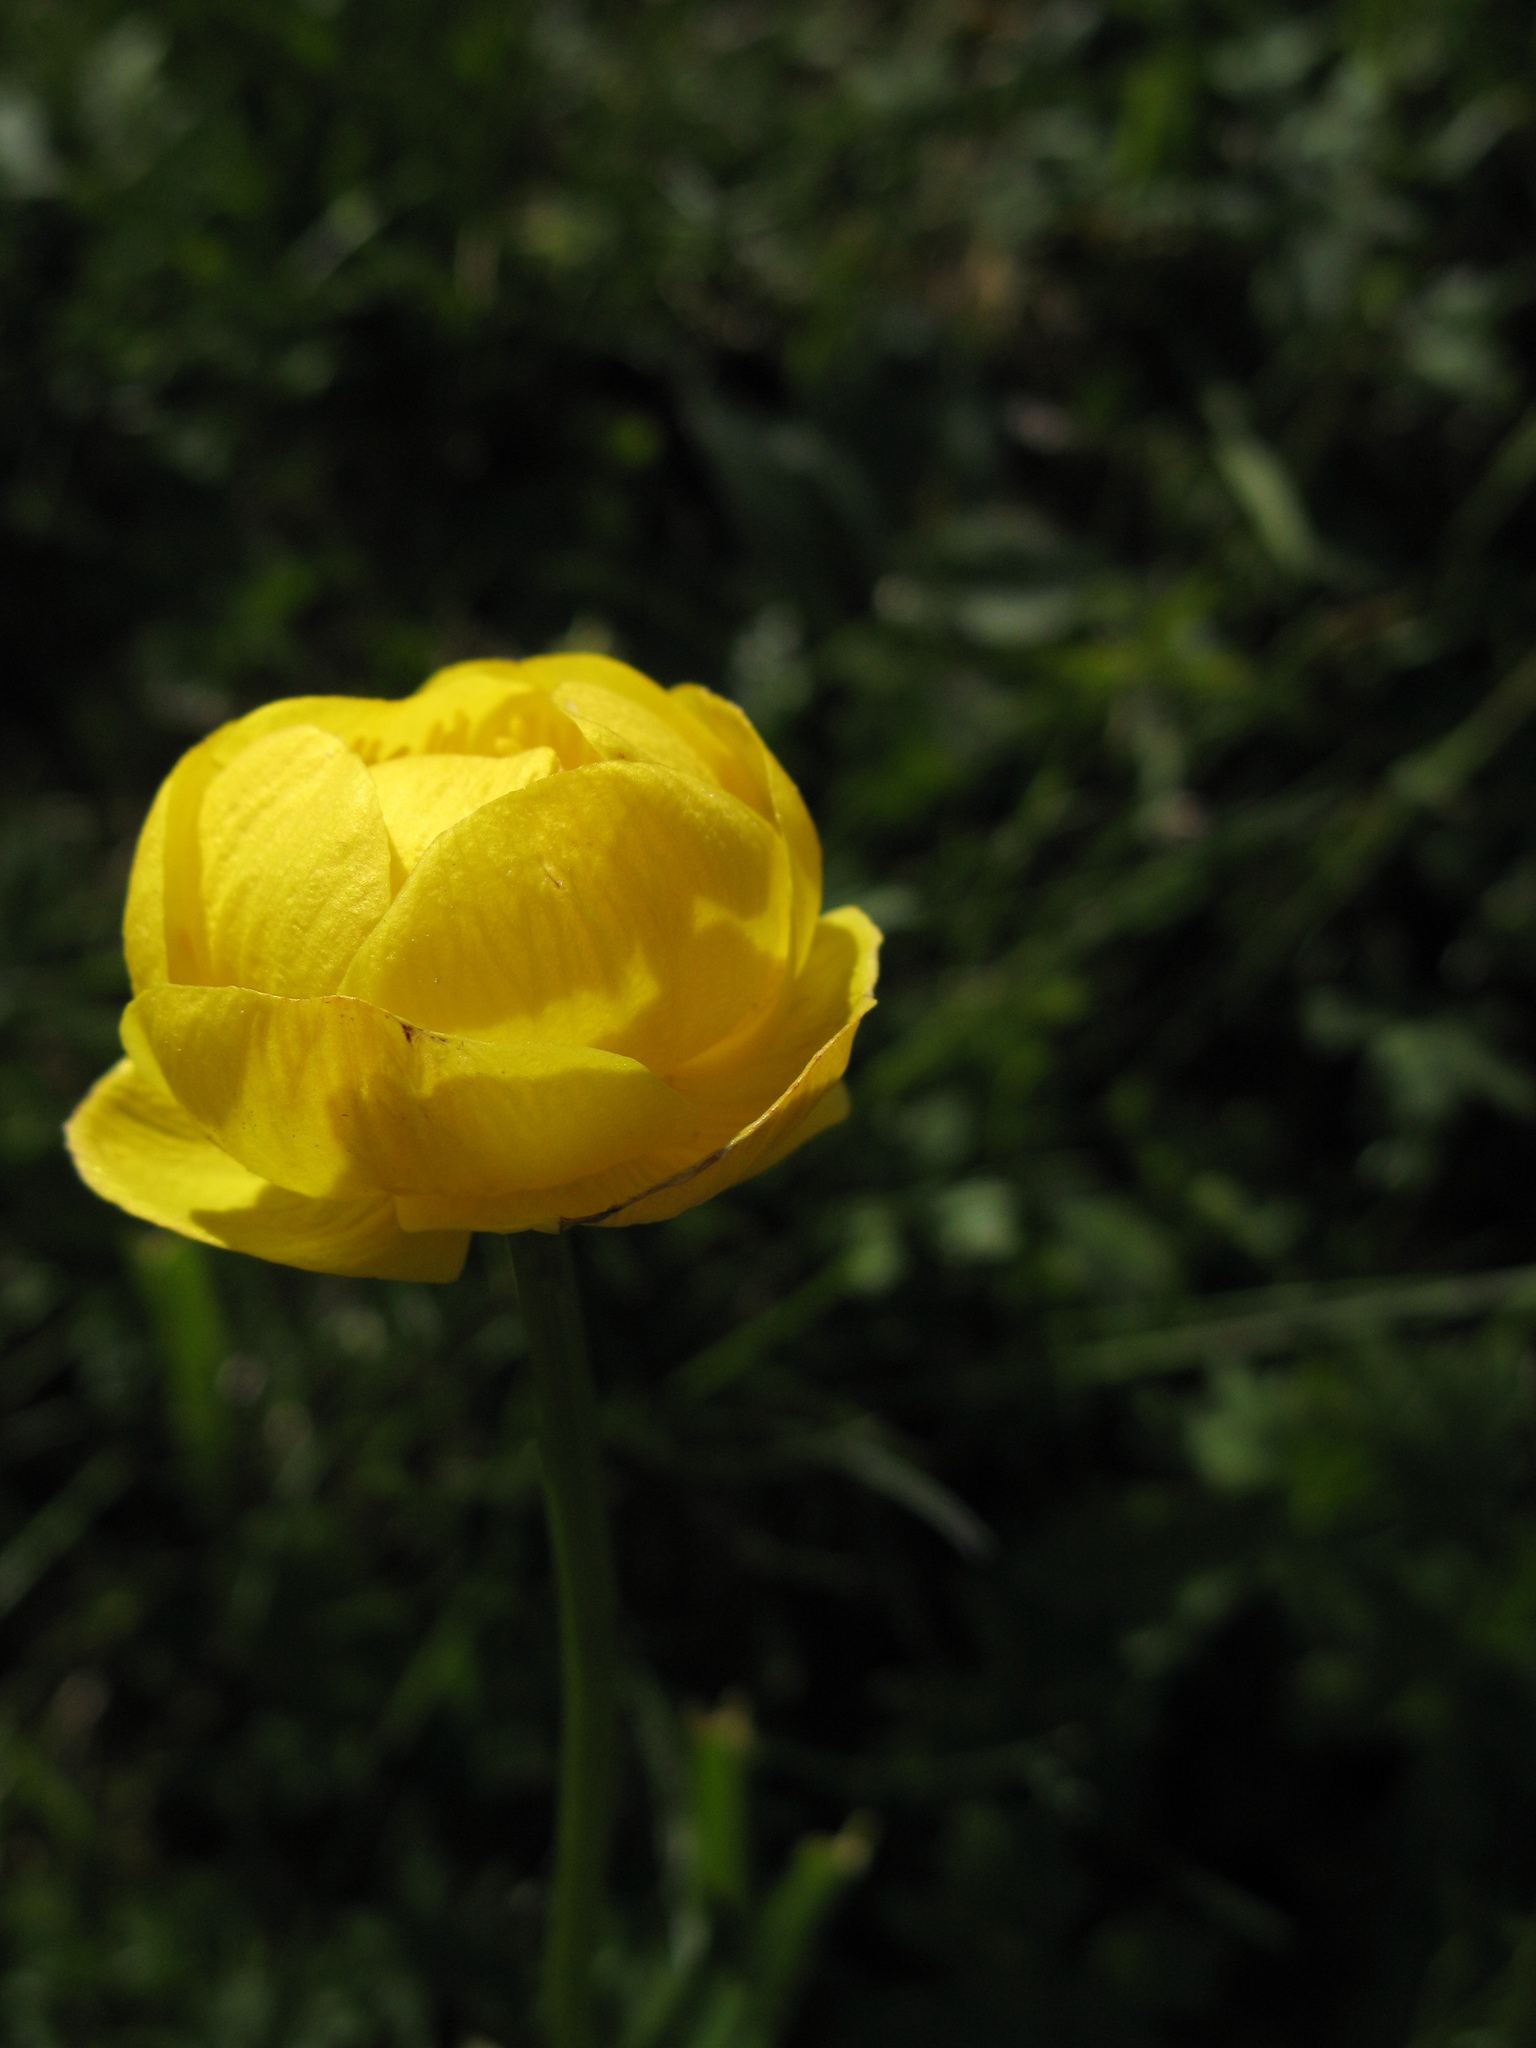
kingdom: Plantae
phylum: Tracheophyta
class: Magnoliopsida
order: Ranunculales
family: Ranunculaceae
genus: Trollius
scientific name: Trollius europaeus
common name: European globeflower
